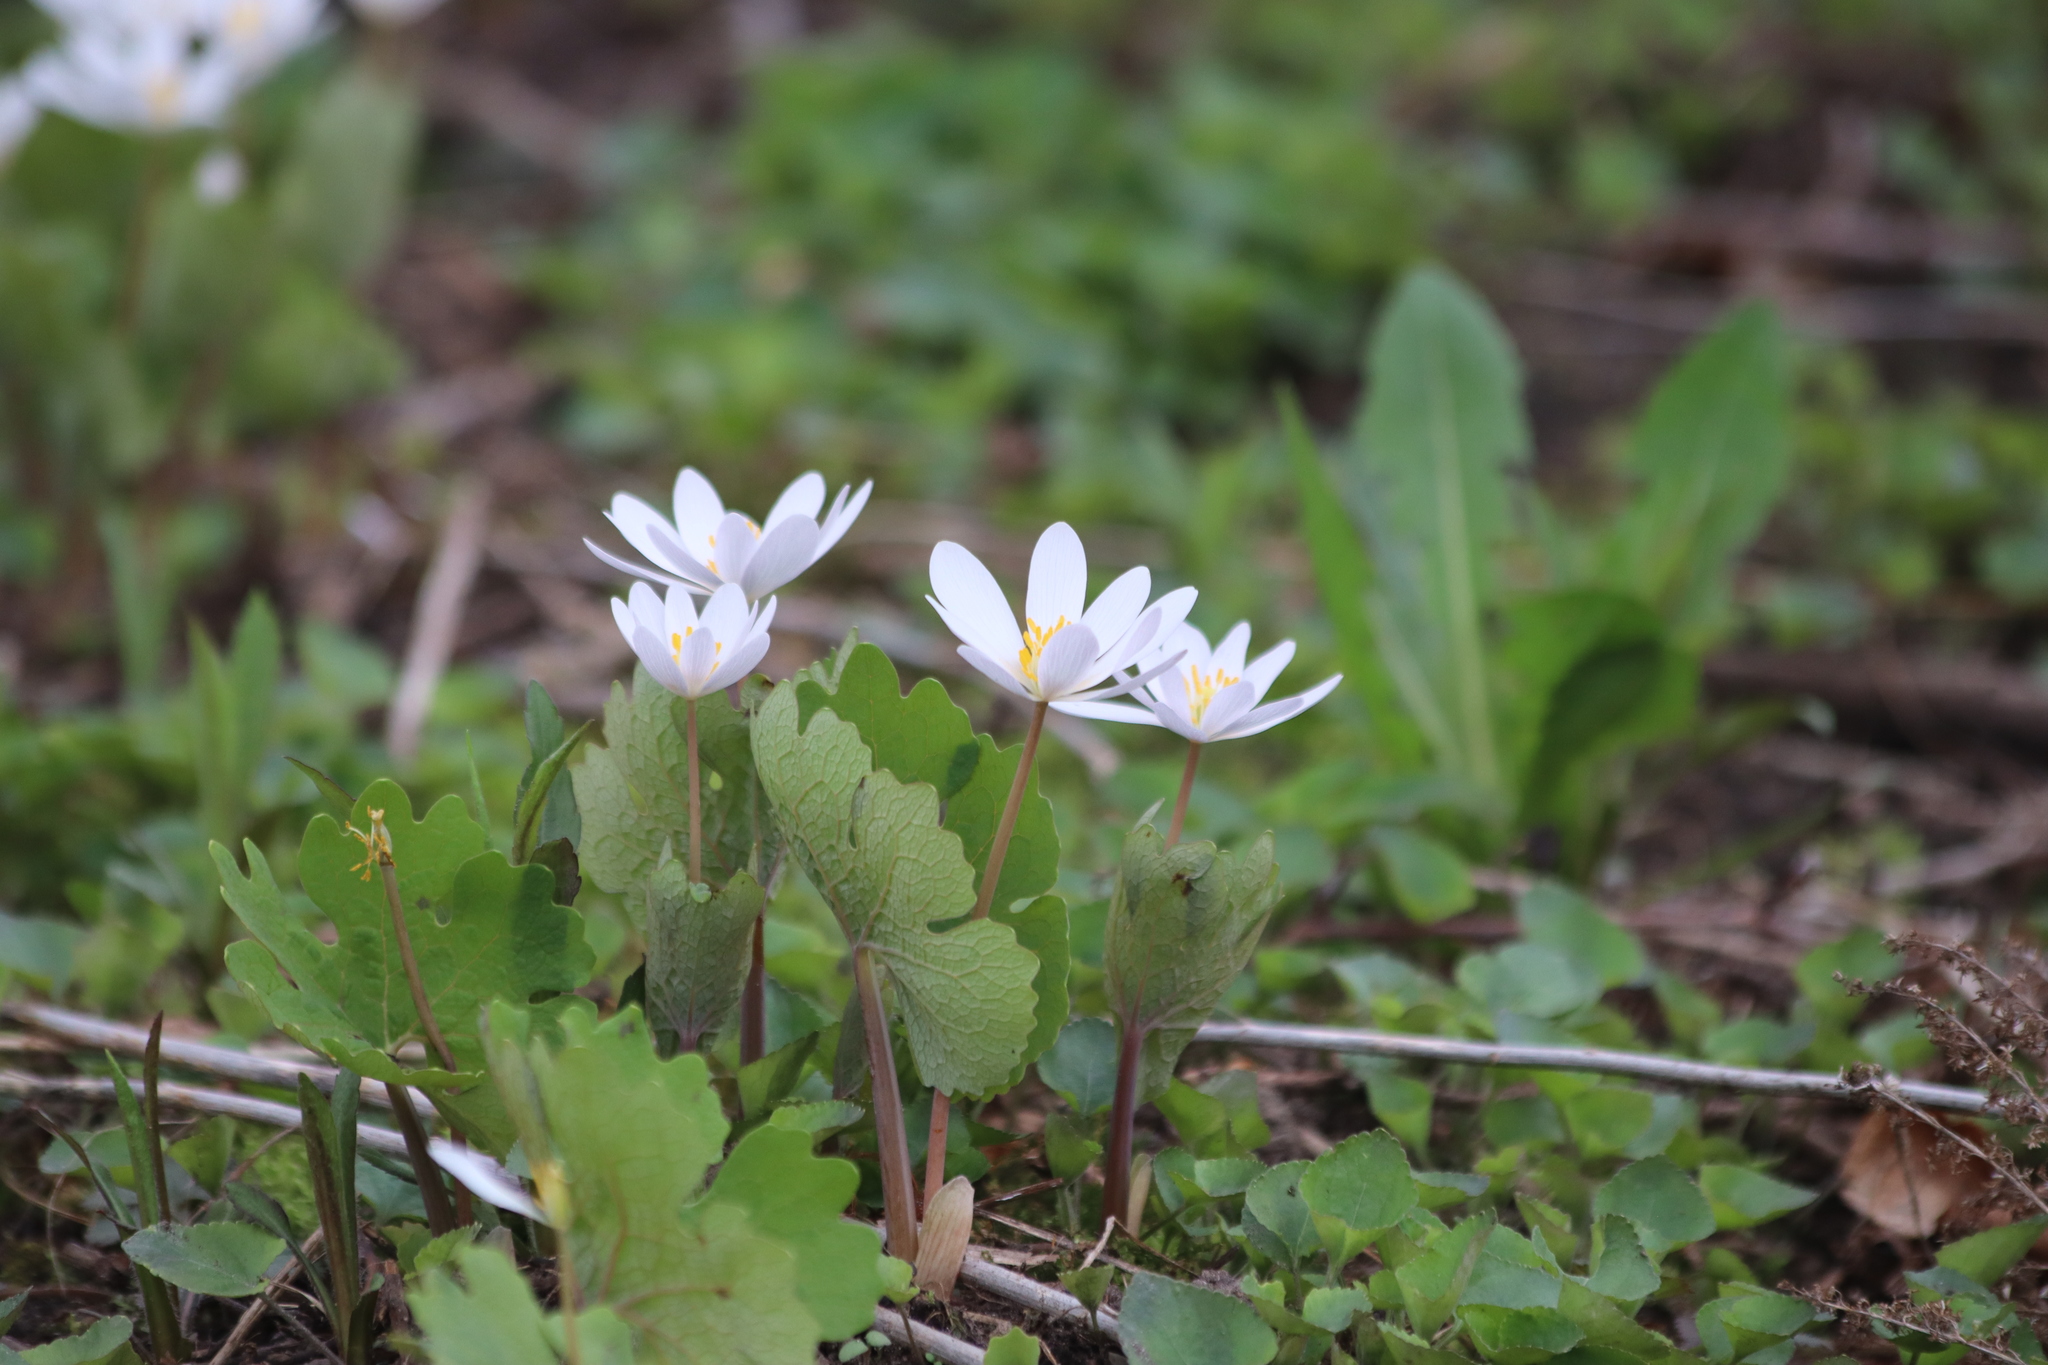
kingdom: Plantae
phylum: Tracheophyta
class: Magnoliopsida
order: Ranunculales
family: Papaveraceae
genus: Sanguinaria
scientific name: Sanguinaria canadensis
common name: Bloodroot
